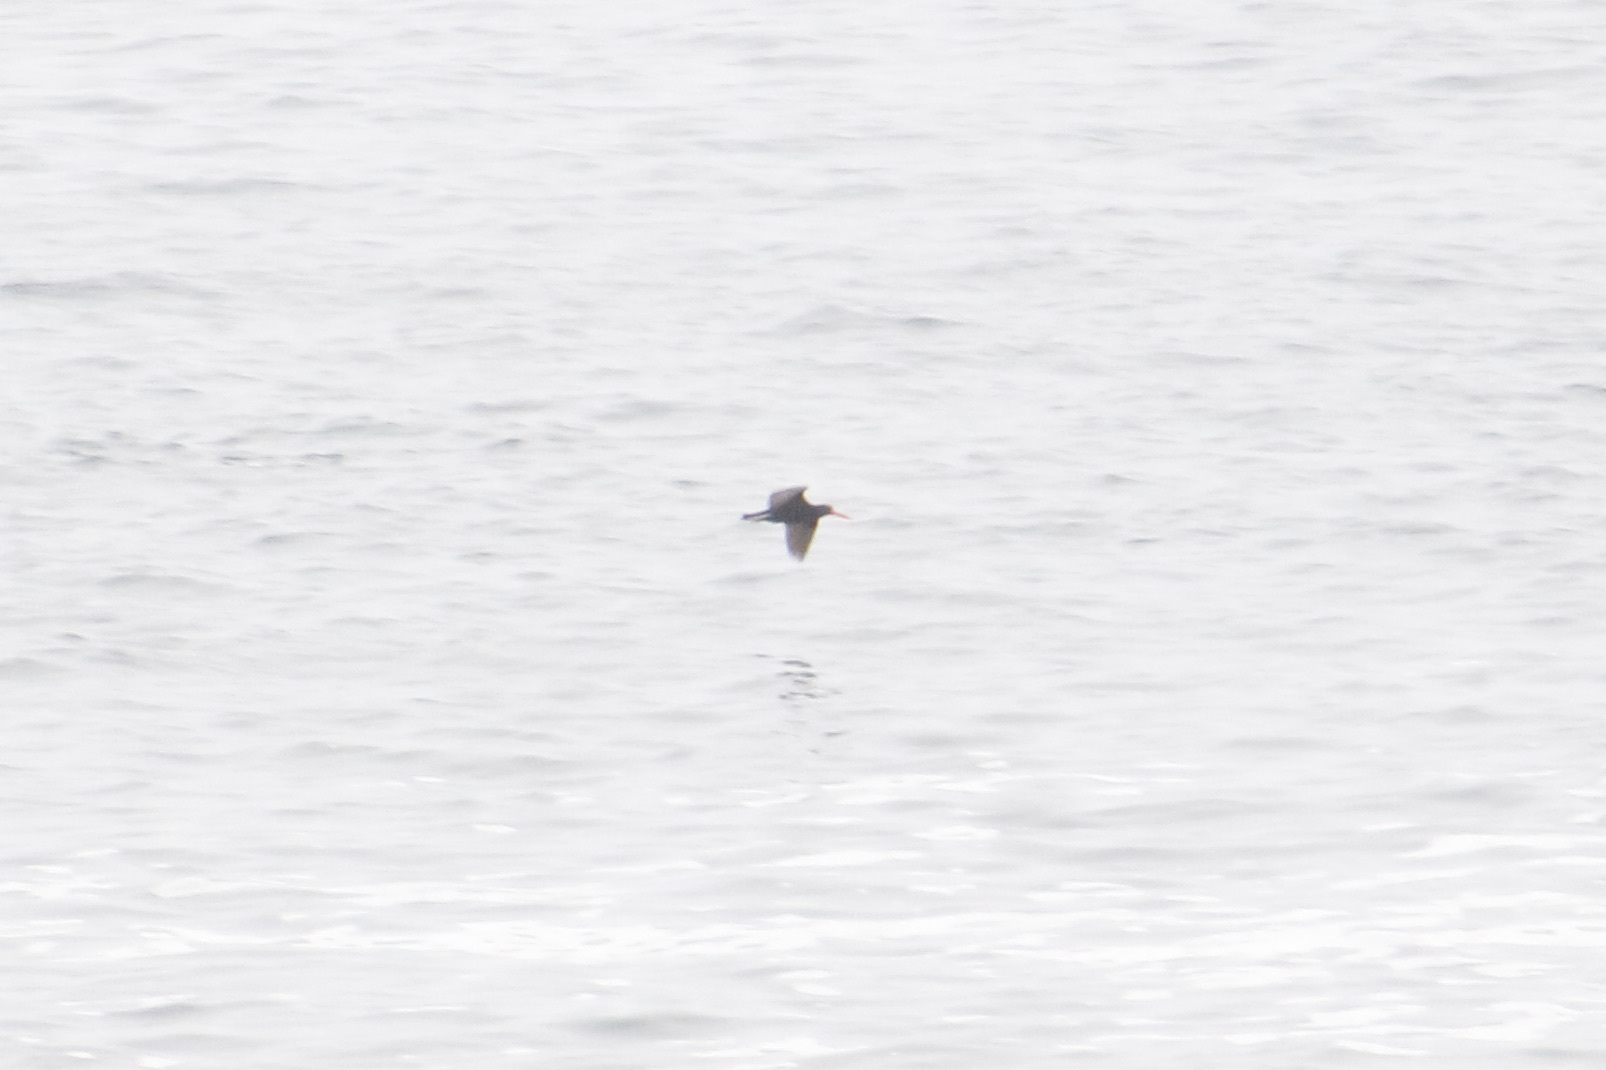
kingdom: Animalia
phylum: Chordata
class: Aves
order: Charadriiformes
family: Haematopodidae
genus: Haematopus
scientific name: Haematopus bachmani
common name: Black oystercatcher
